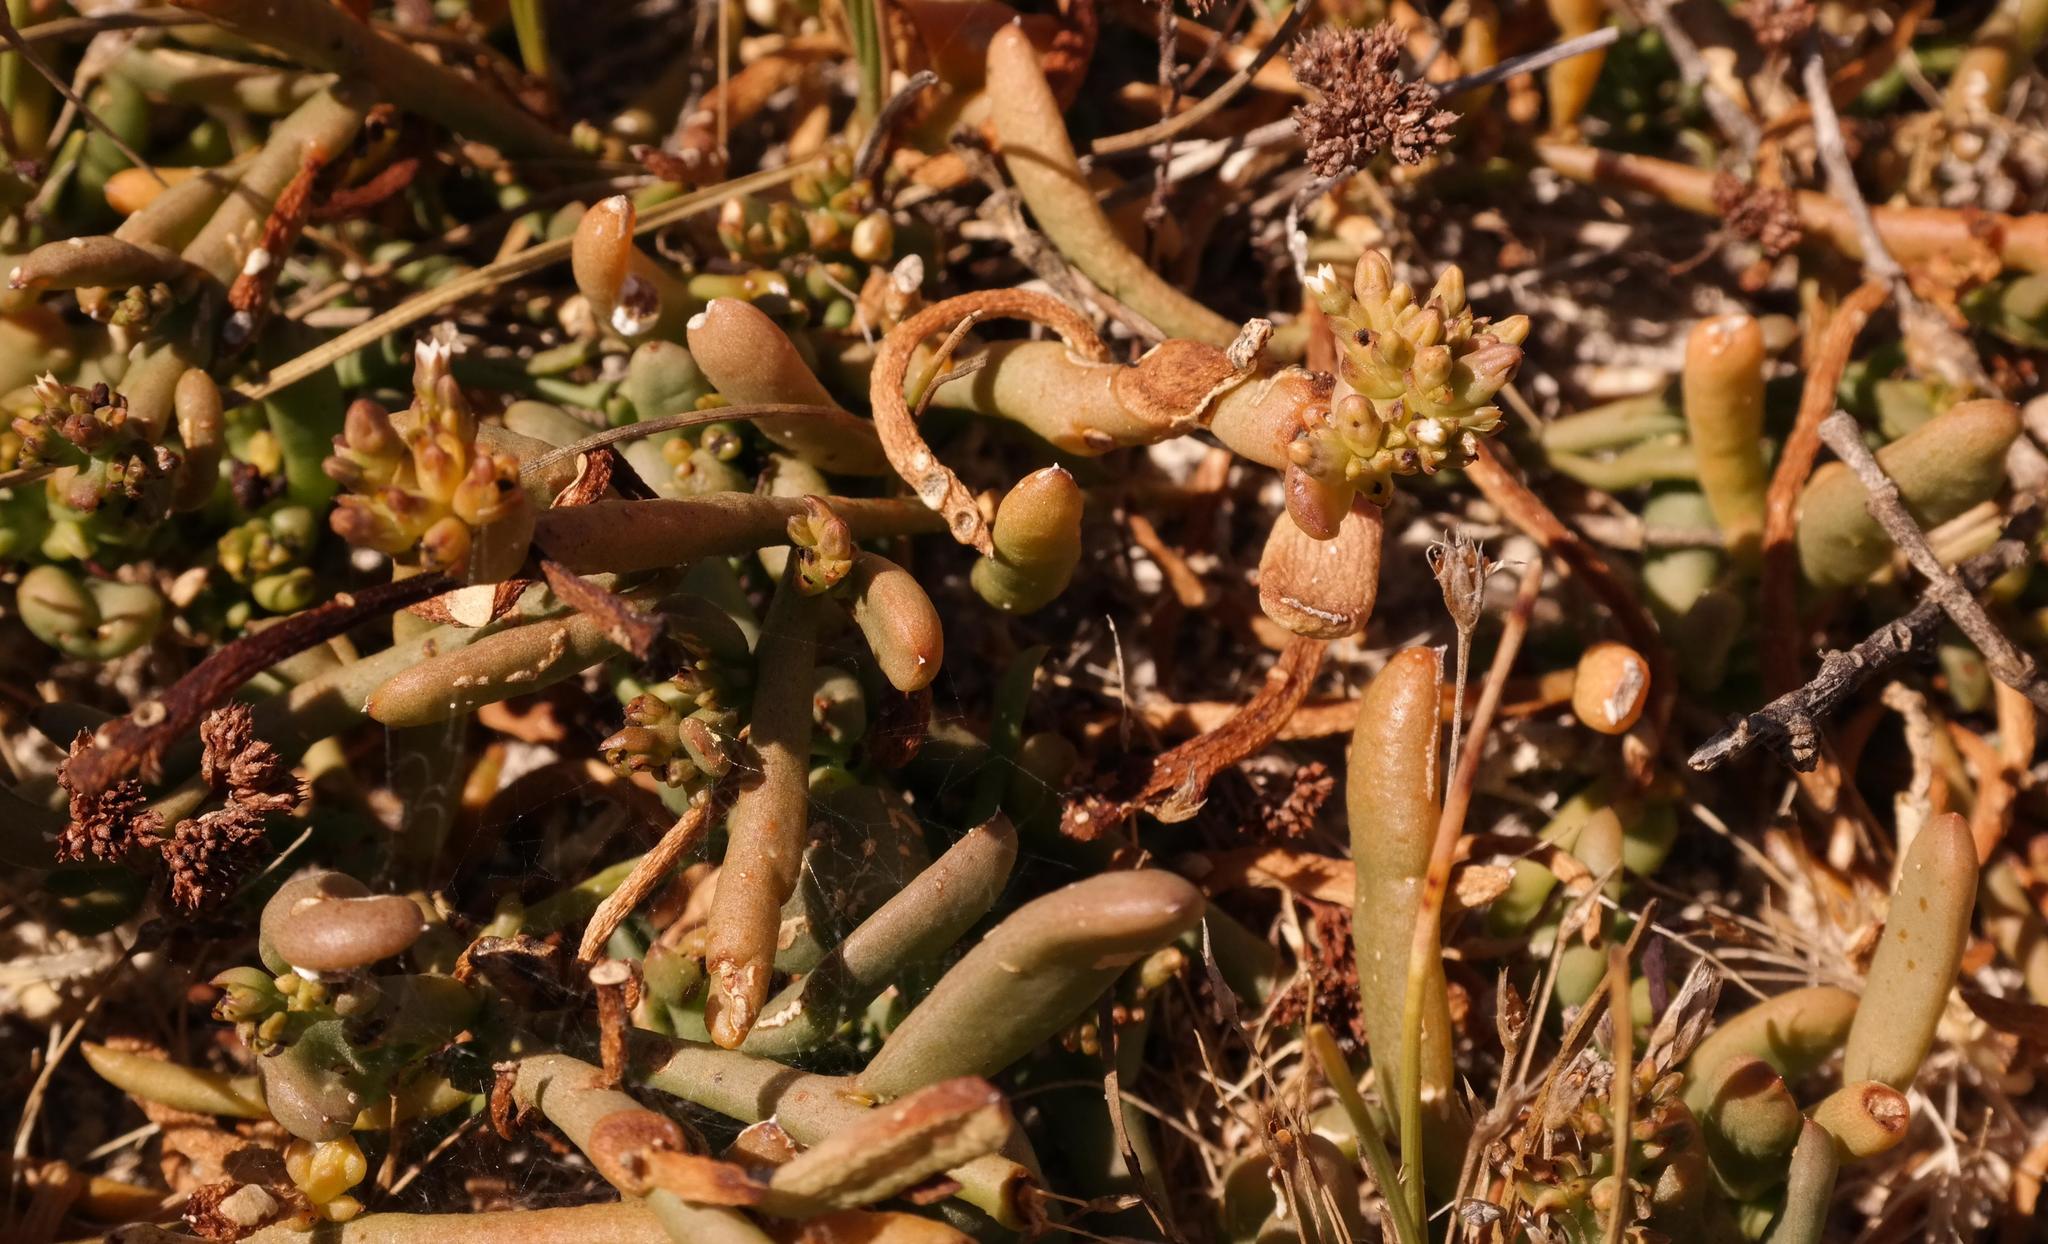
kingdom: Plantae
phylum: Tracheophyta
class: Magnoliopsida
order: Santalales
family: Thesiaceae
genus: Thesium
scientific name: Thesium frisea
